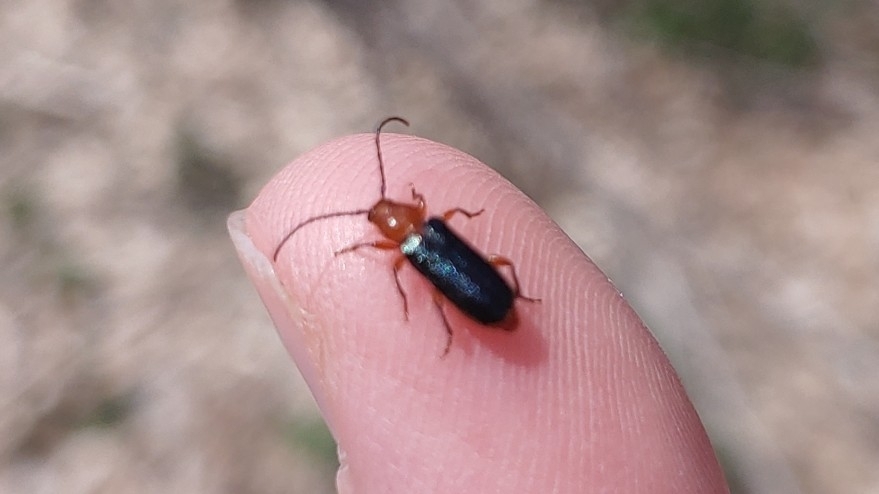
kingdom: Animalia
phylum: Arthropoda
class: Insecta
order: Coleoptera
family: Cerambycidae
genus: Phymatodes
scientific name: Phymatodes amoenus
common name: Grape-vine phymatodes
